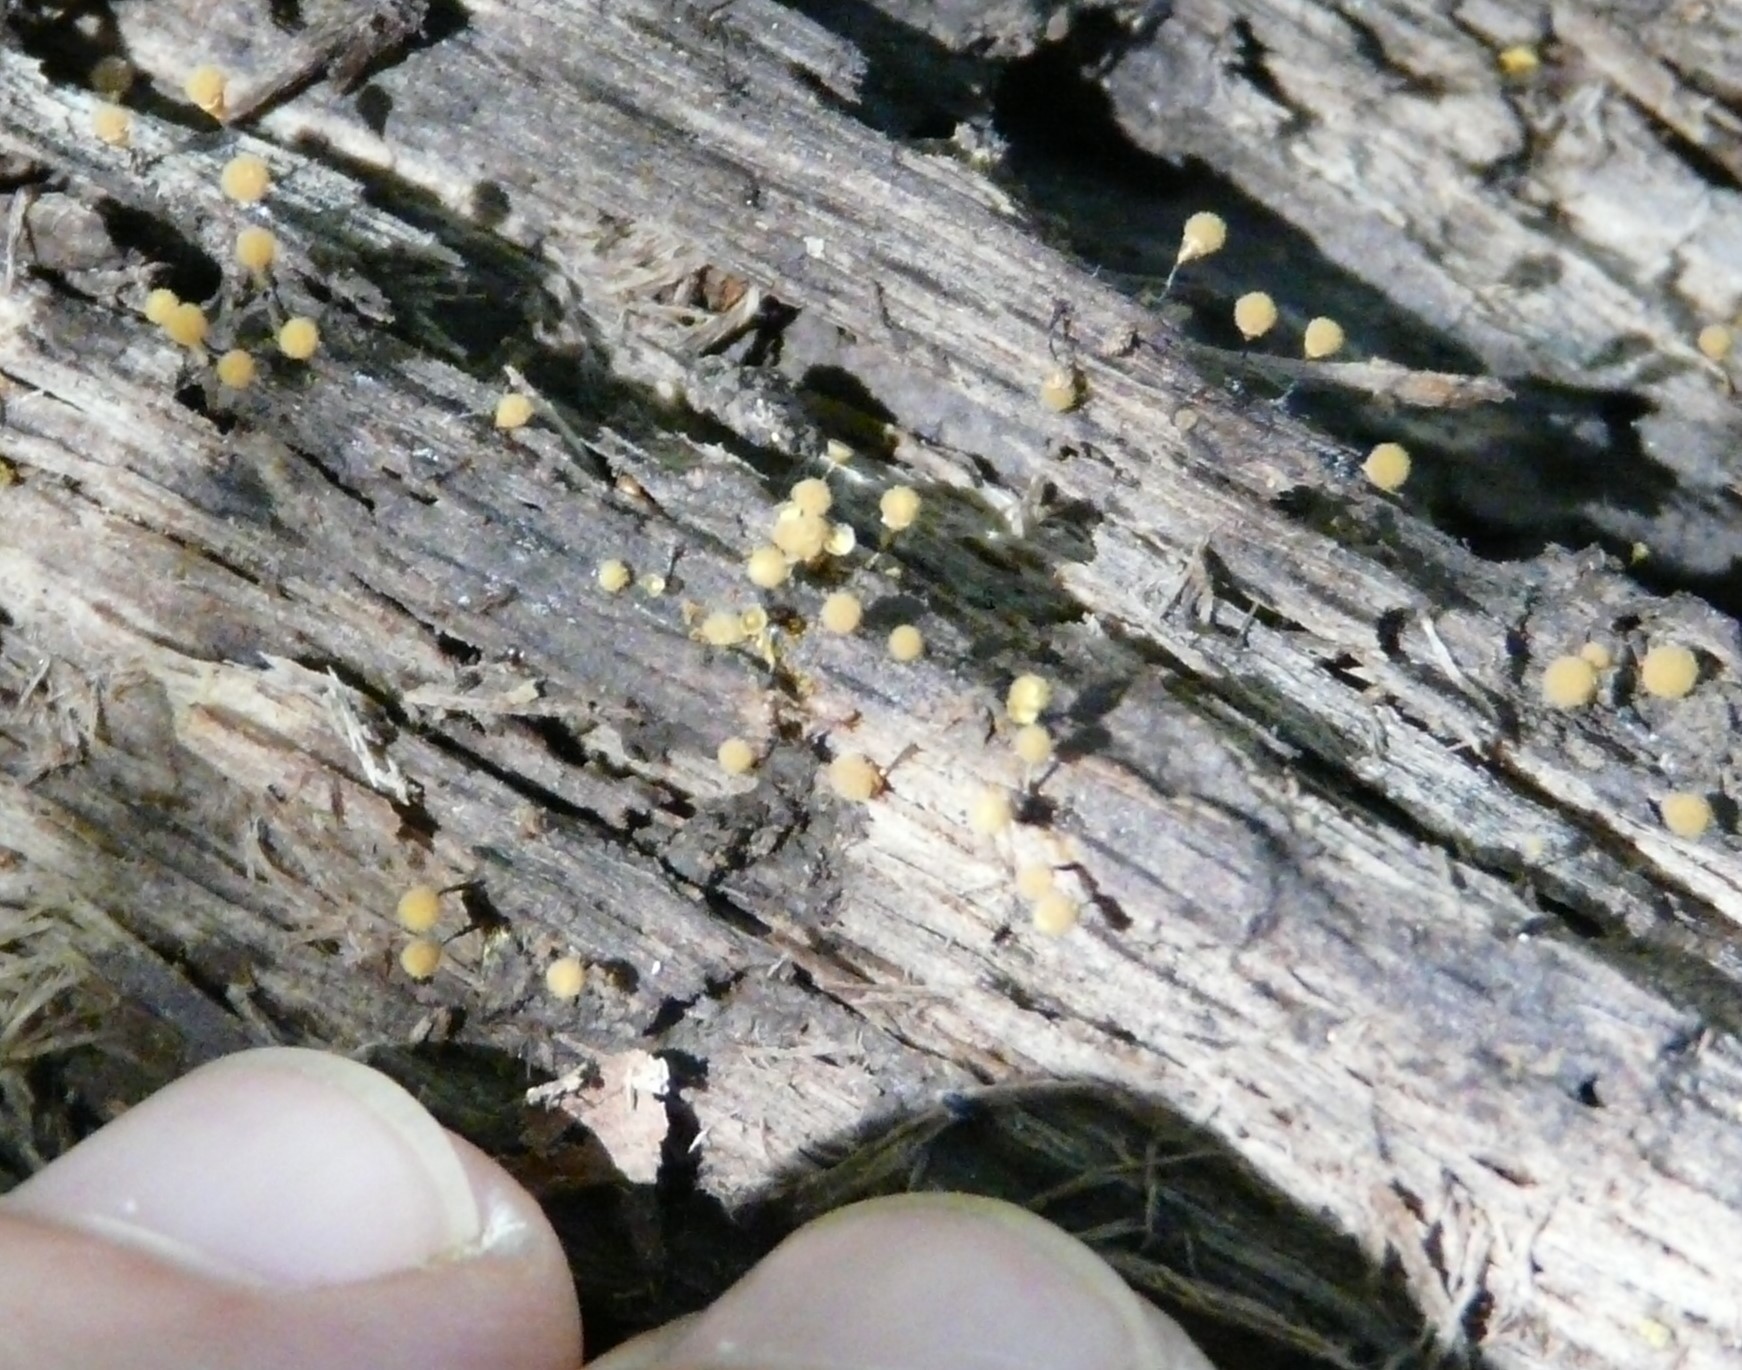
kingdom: Protozoa
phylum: Mycetozoa
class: Myxomycetes
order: Trichiales
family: Arcyriaceae
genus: Hemitrichia
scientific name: Hemitrichia calyculata
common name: Push pin slime mold
